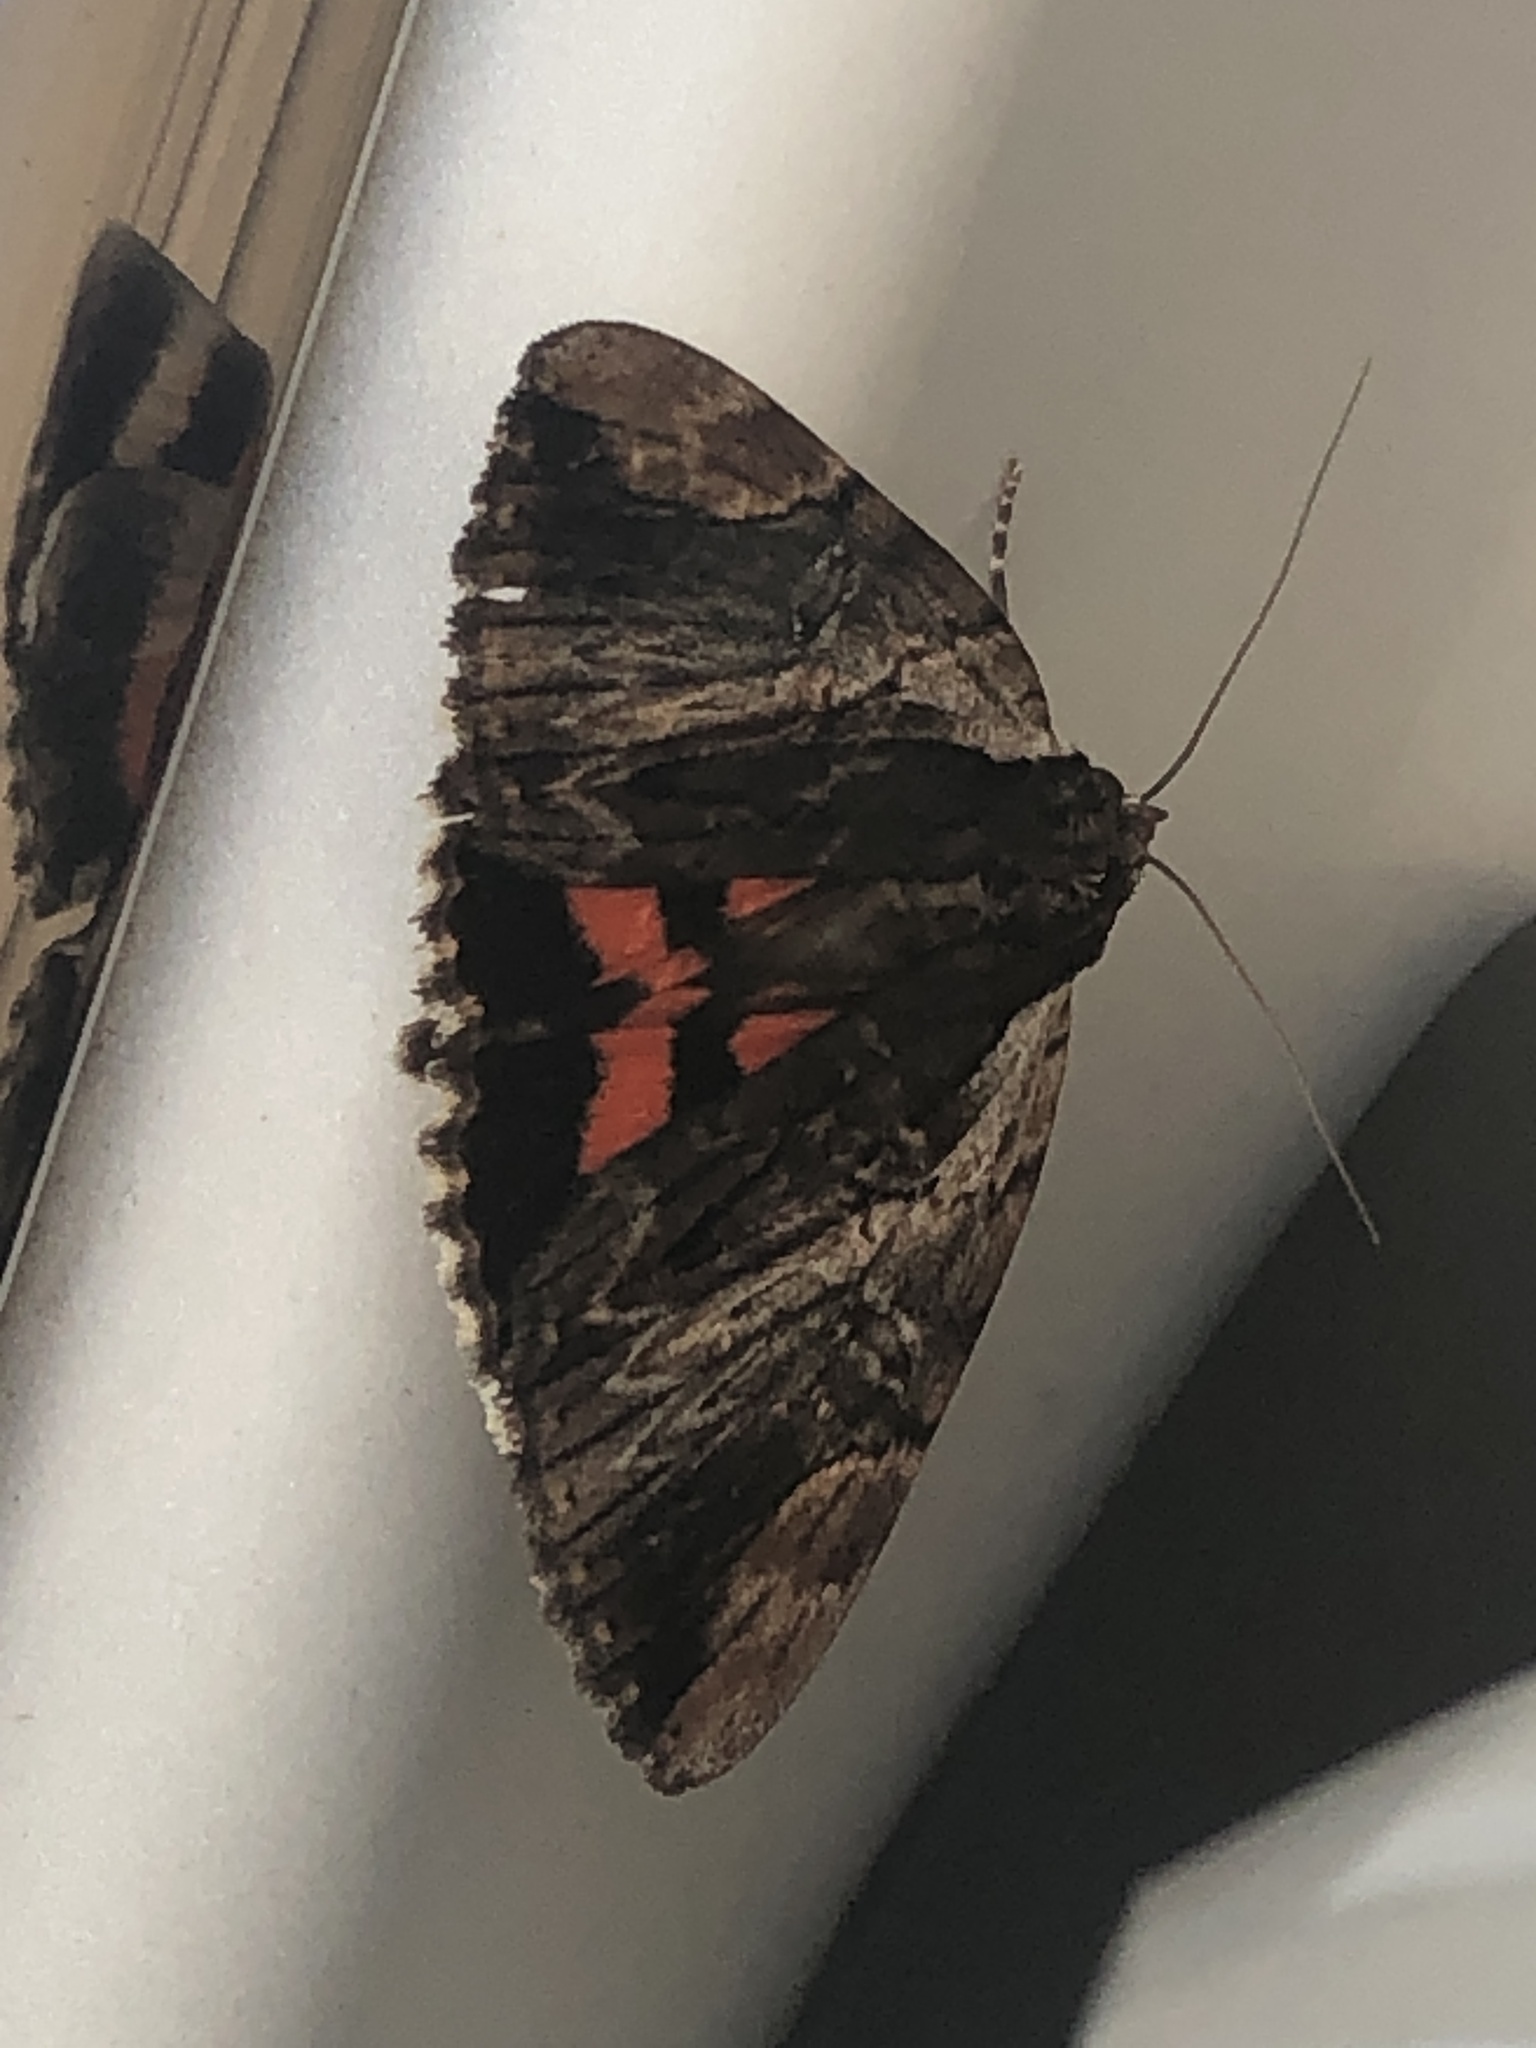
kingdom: Animalia
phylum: Arthropoda
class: Insecta
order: Lepidoptera
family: Erebidae
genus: Catocala
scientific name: Catocala ultronia
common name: Ultronia underwing
